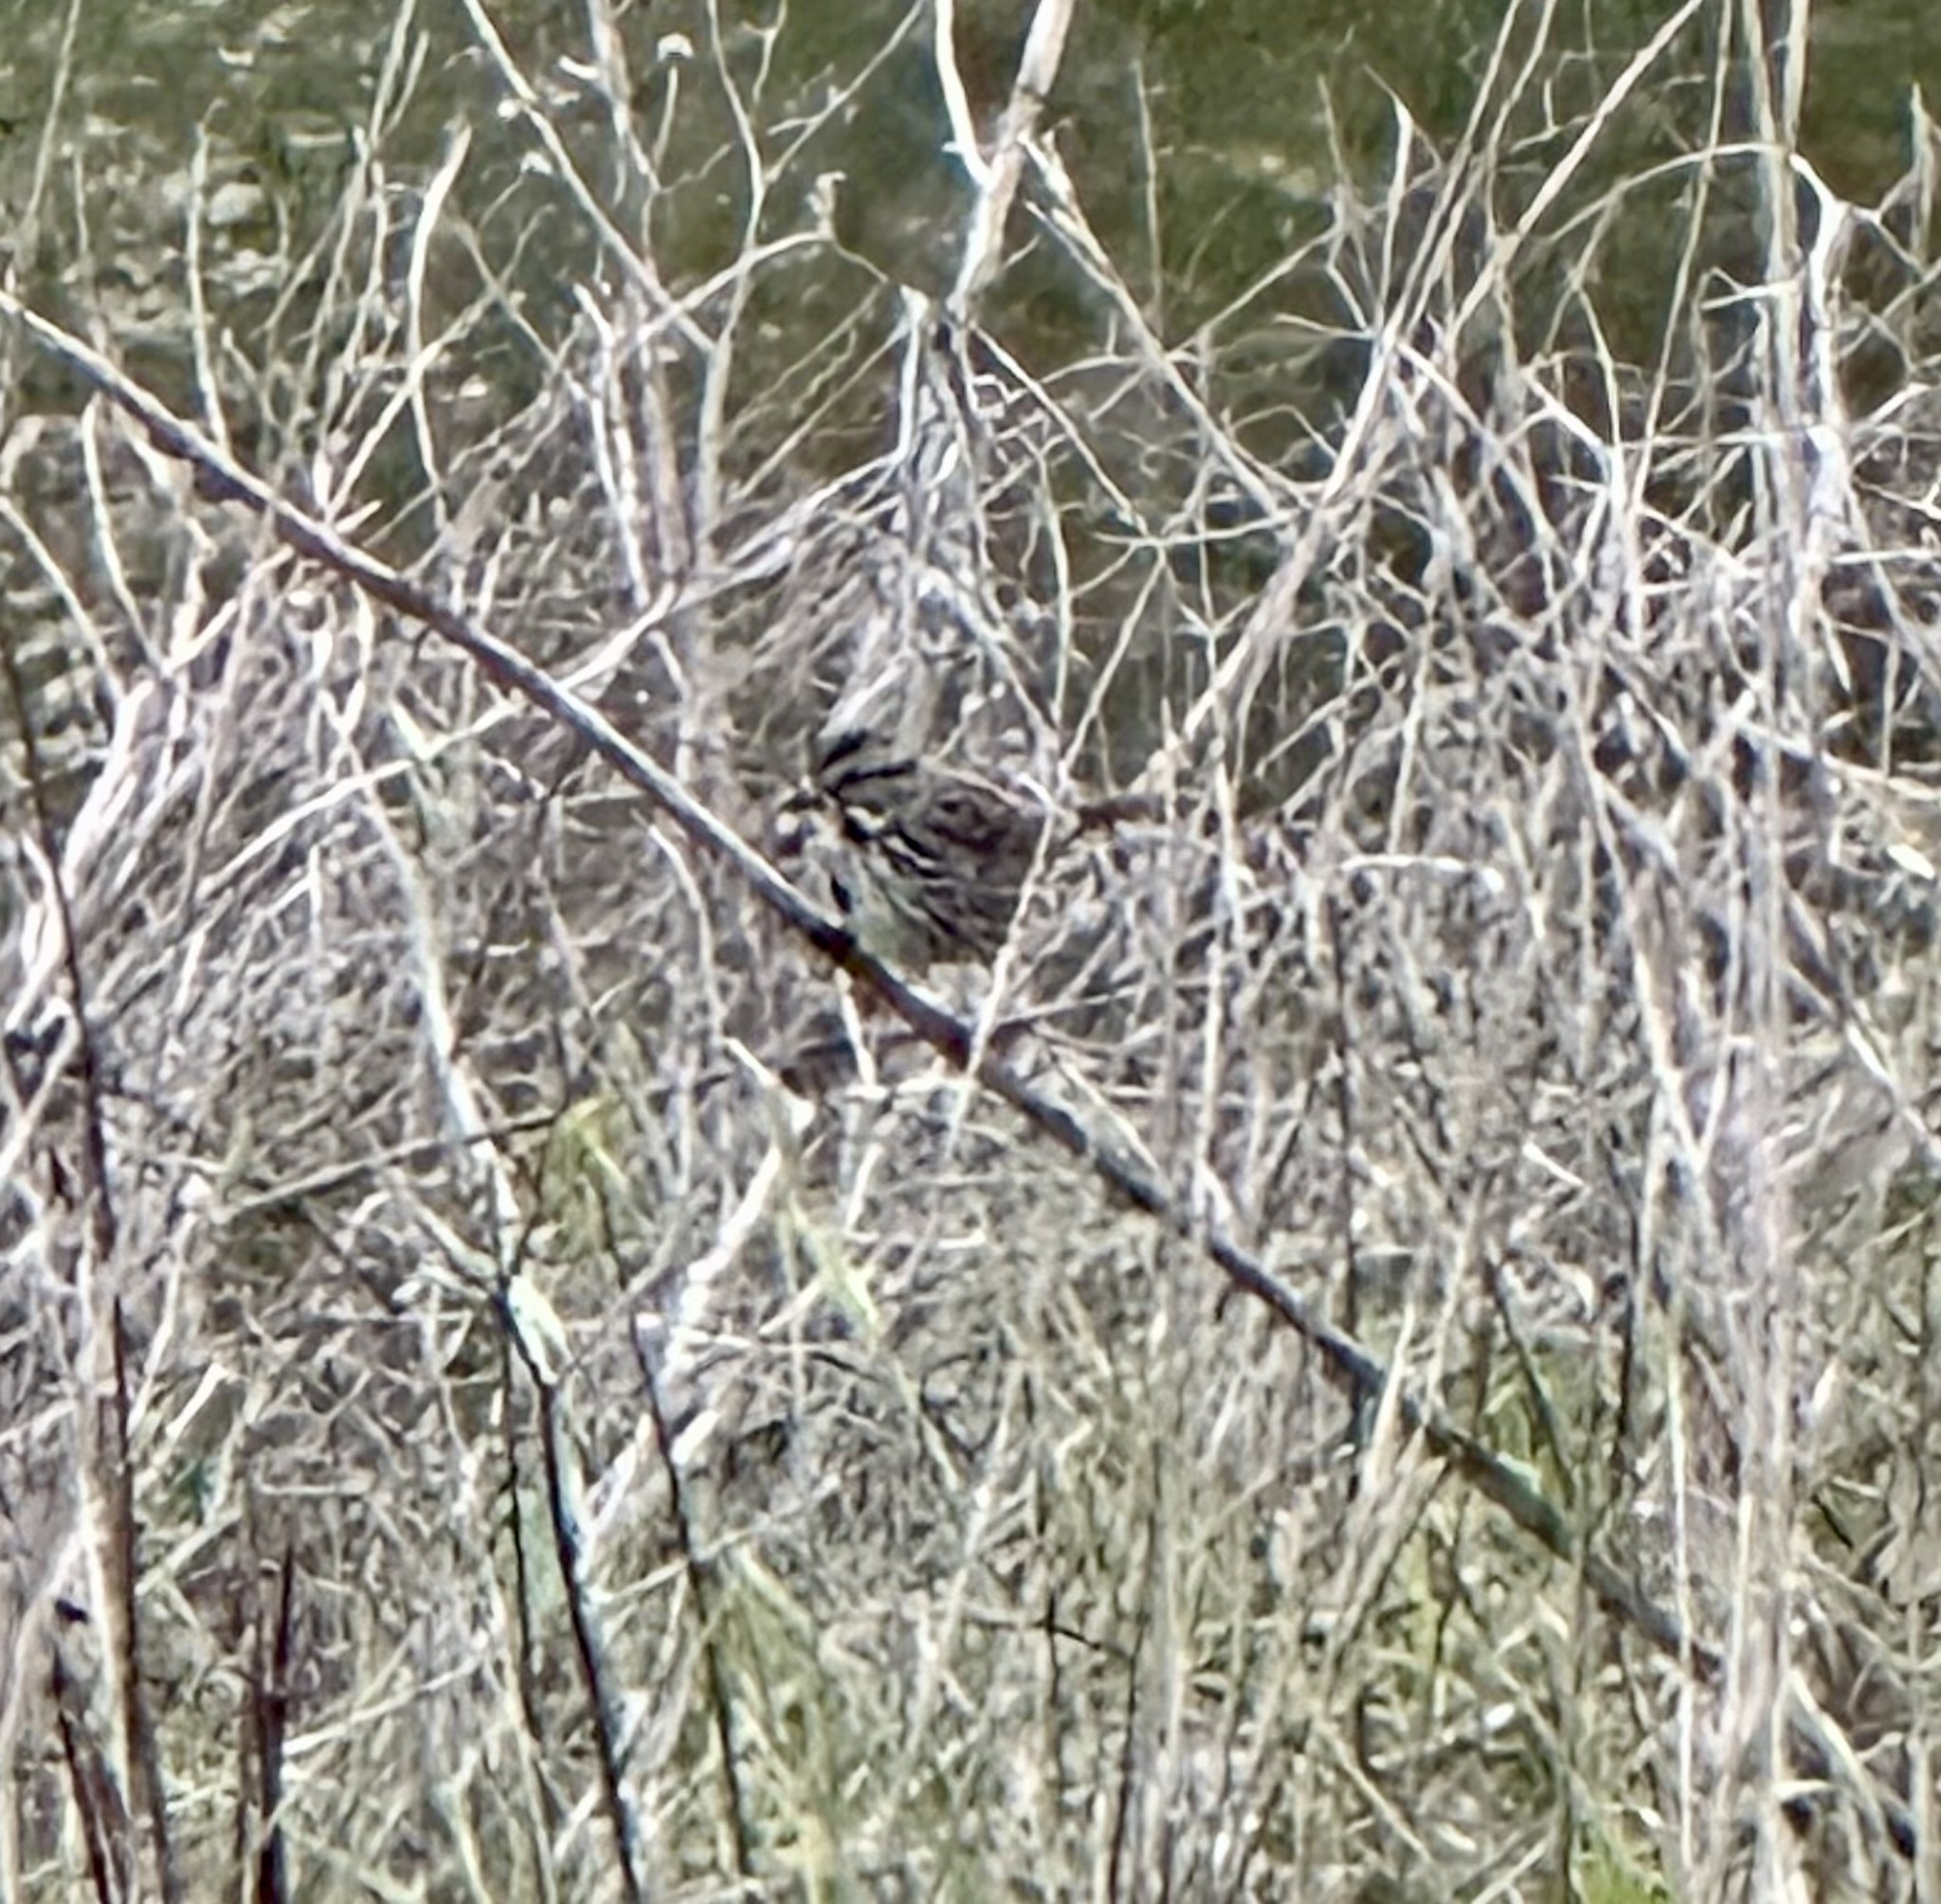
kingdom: Animalia
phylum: Chordata
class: Aves
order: Passeriformes
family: Passerellidae
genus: Melospiza
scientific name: Melospiza melodia
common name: Song sparrow
